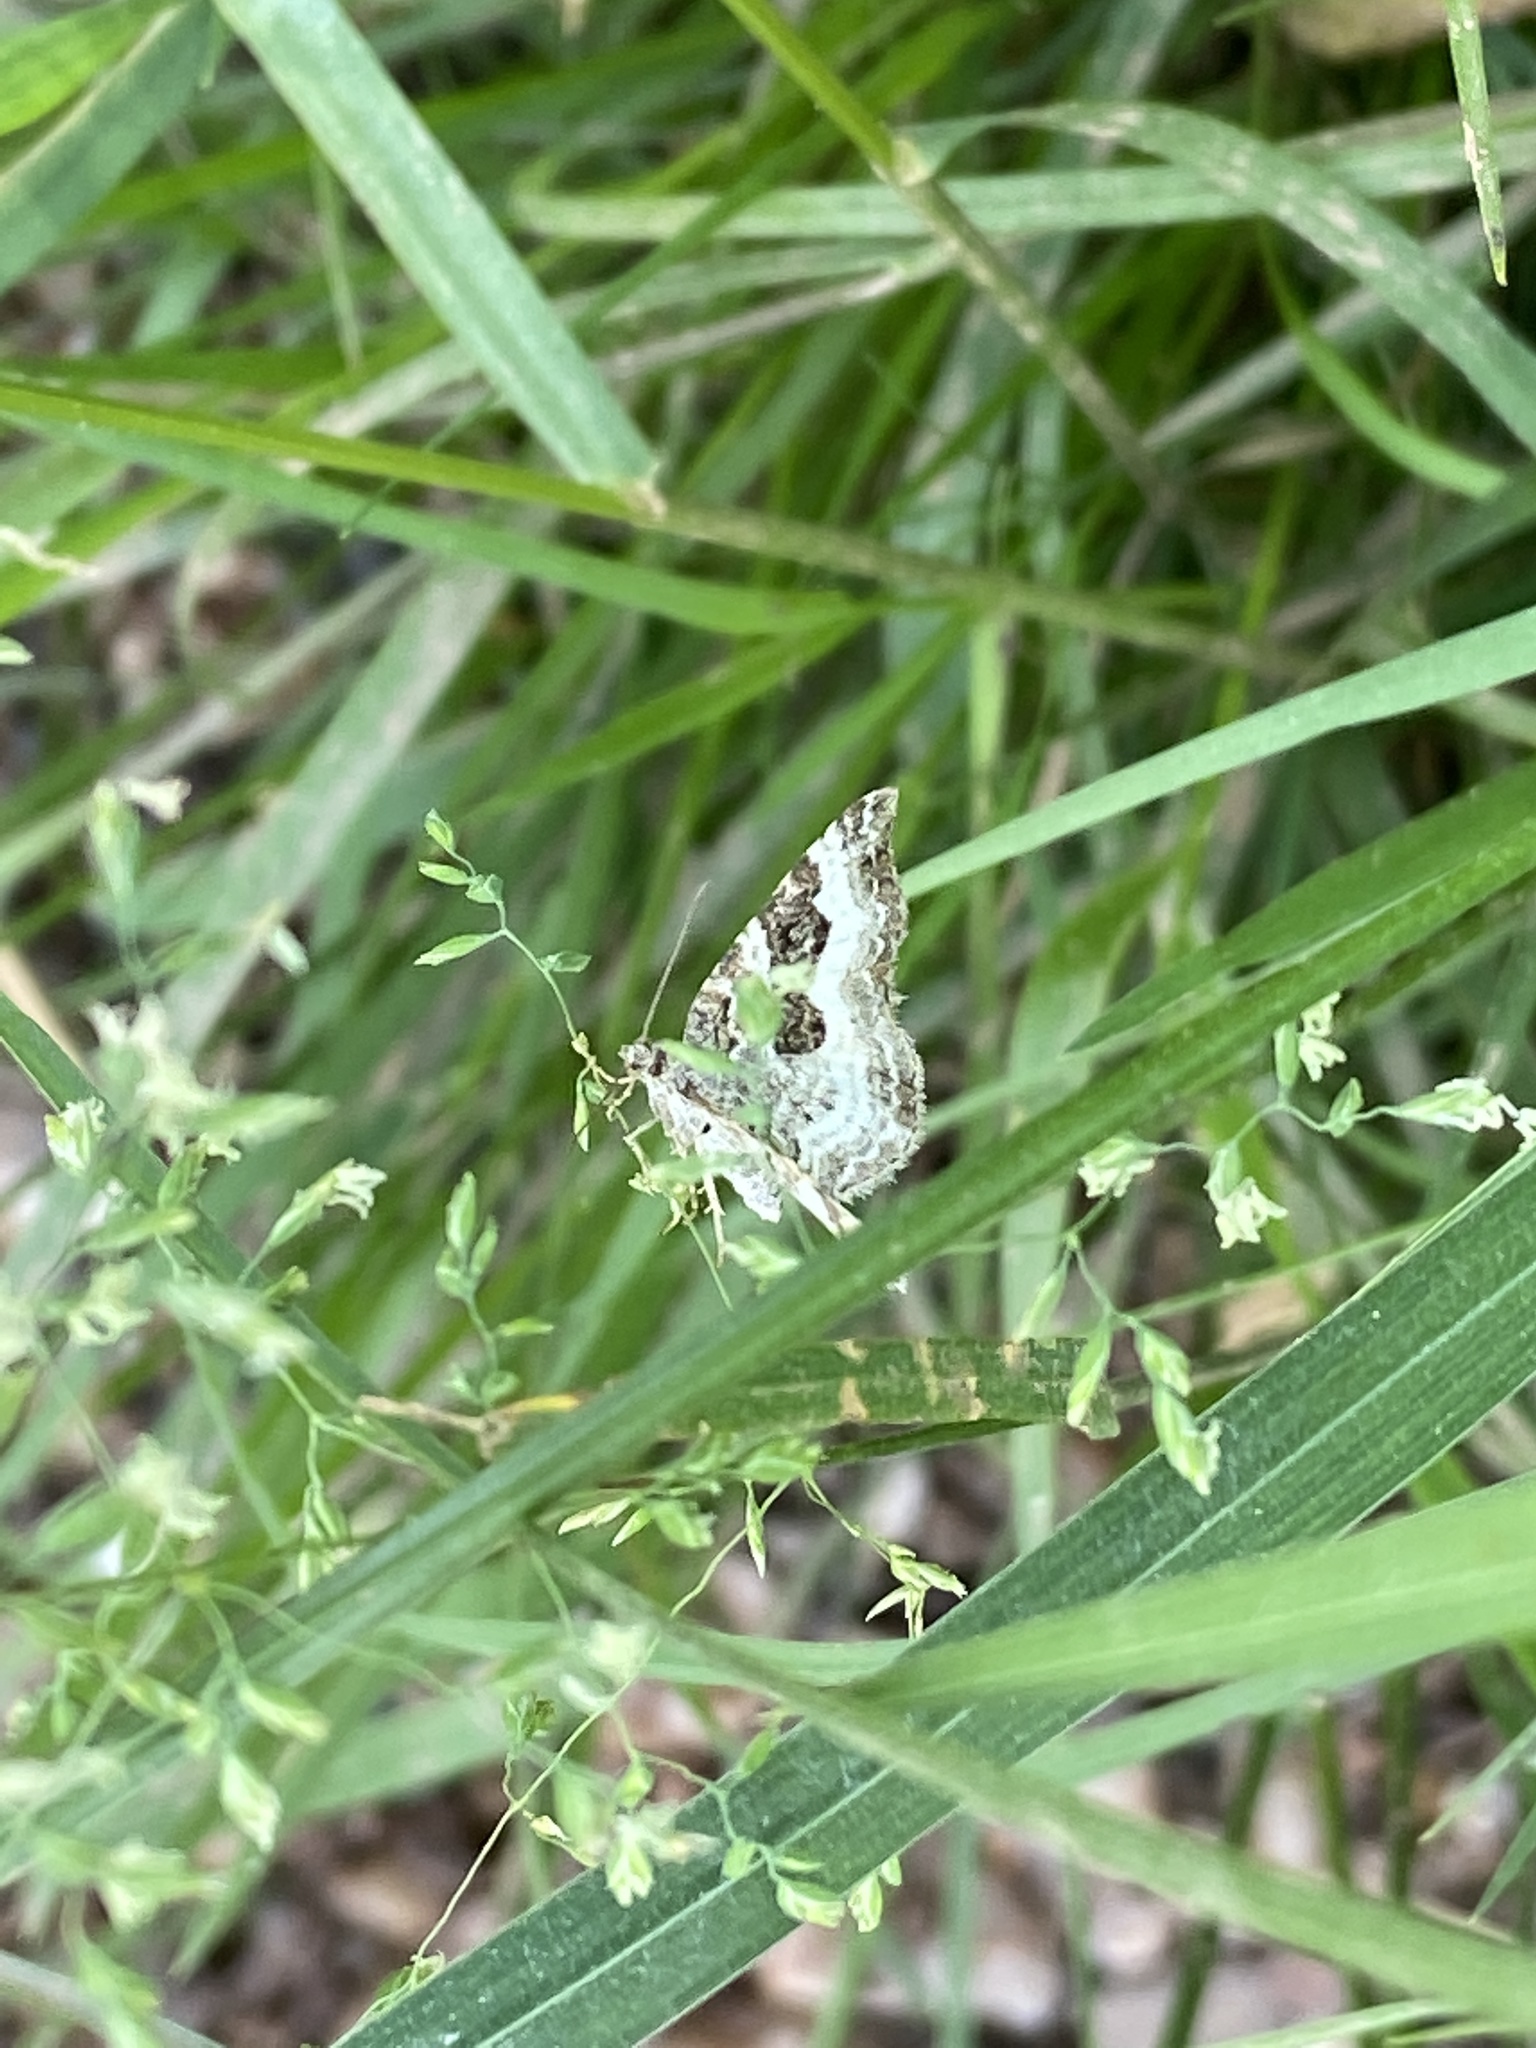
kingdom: Animalia
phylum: Arthropoda
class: Insecta
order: Lepidoptera
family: Geometridae
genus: Epirrhoe
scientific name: Epirrhoe alternata
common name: Common carpet
